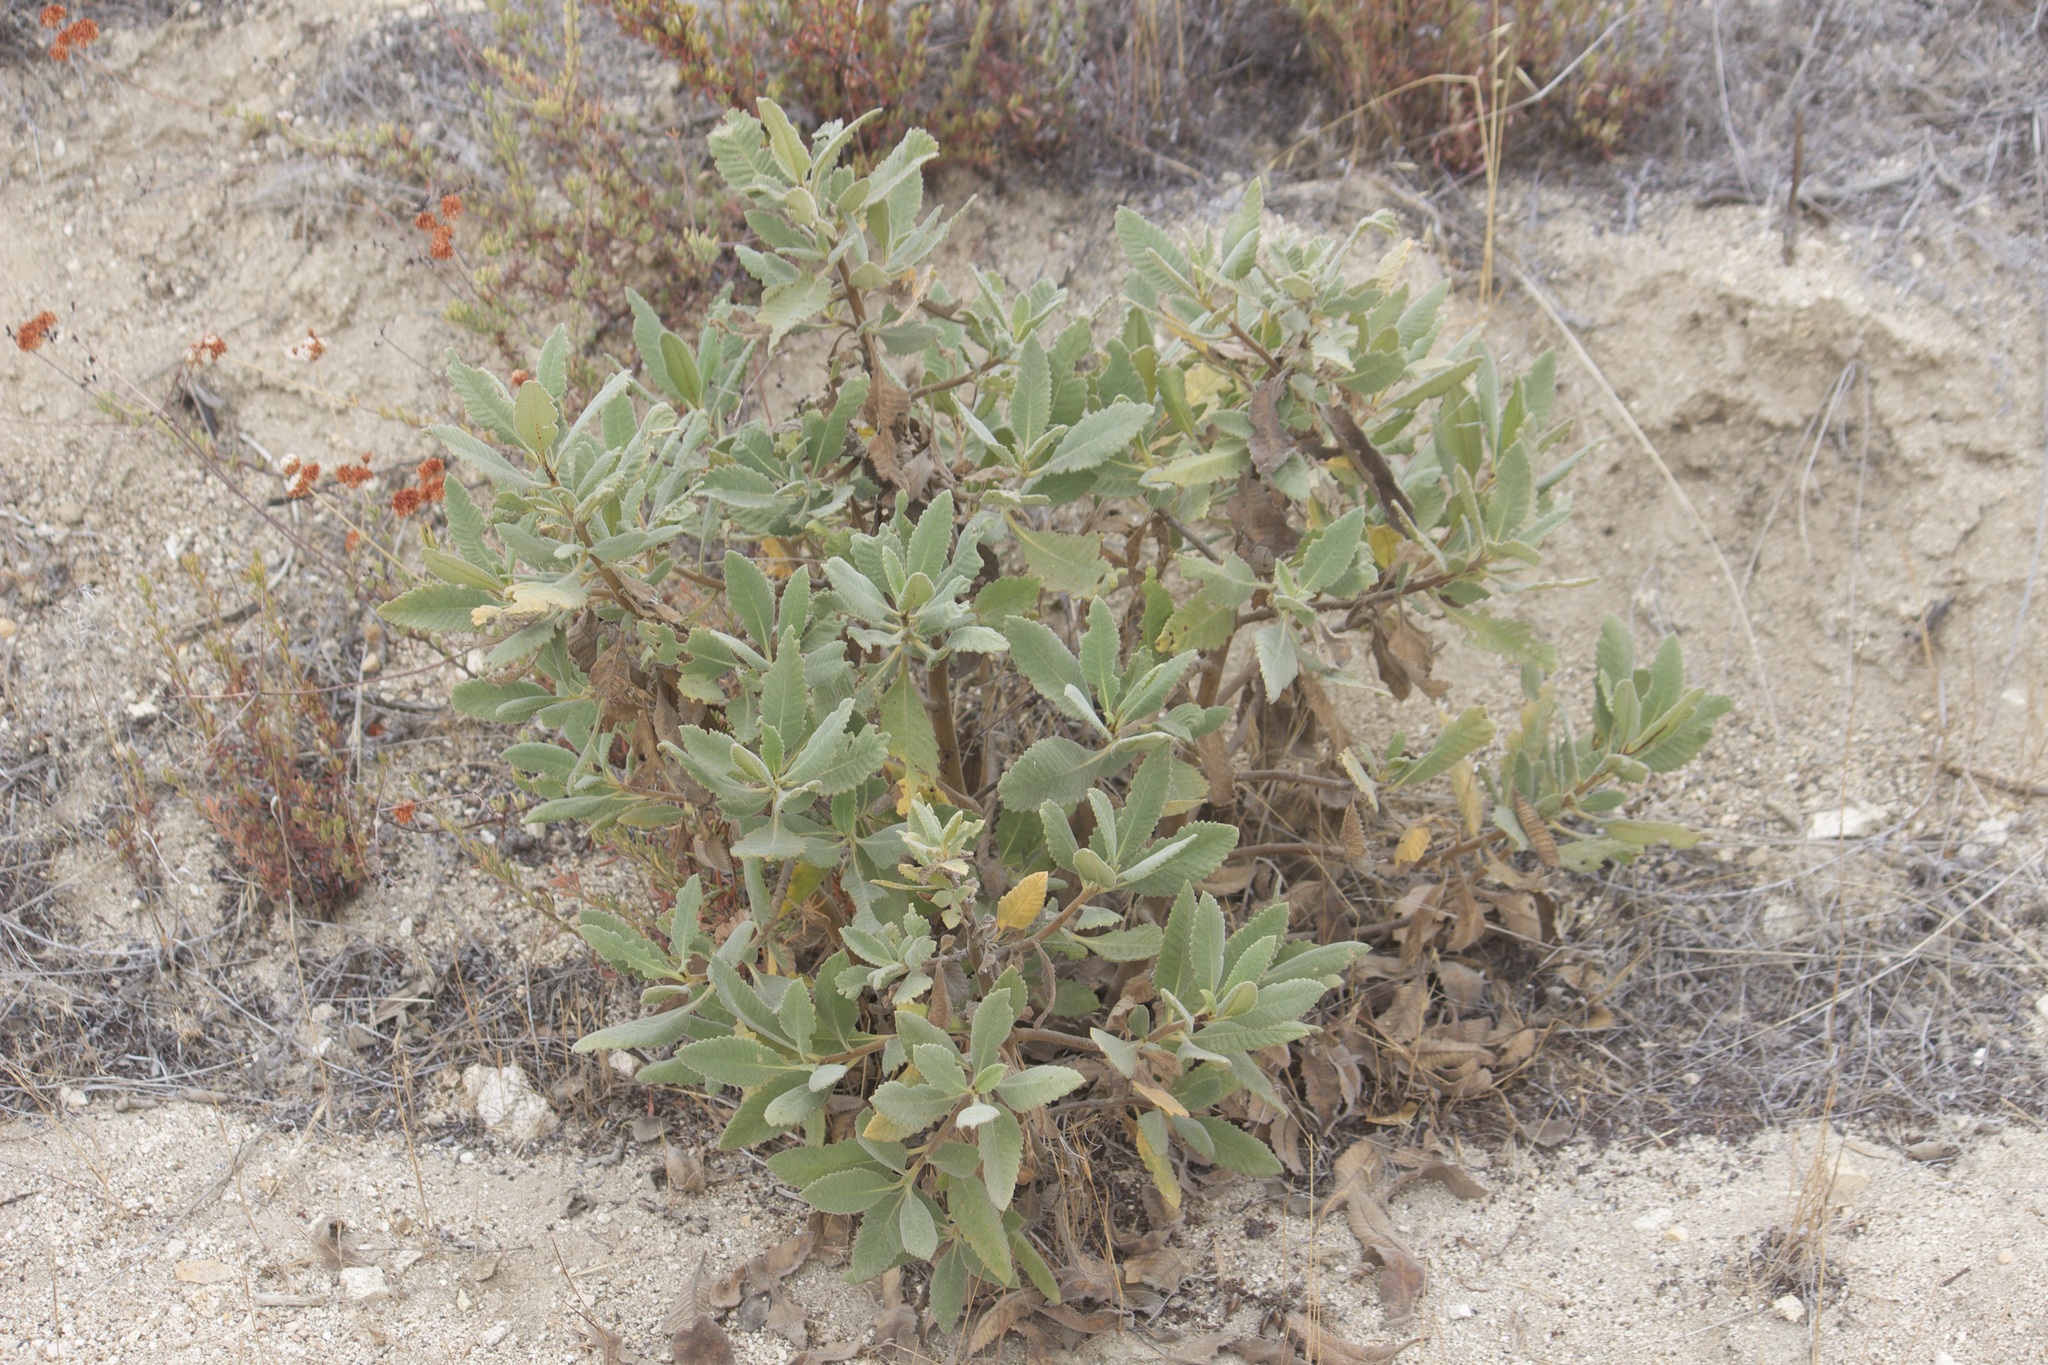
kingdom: Plantae
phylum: Tracheophyta
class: Magnoliopsida
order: Boraginales
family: Namaceae
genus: Eriodictyon
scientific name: Eriodictyon crassifolium
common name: Thick-leaf yerba-santa
